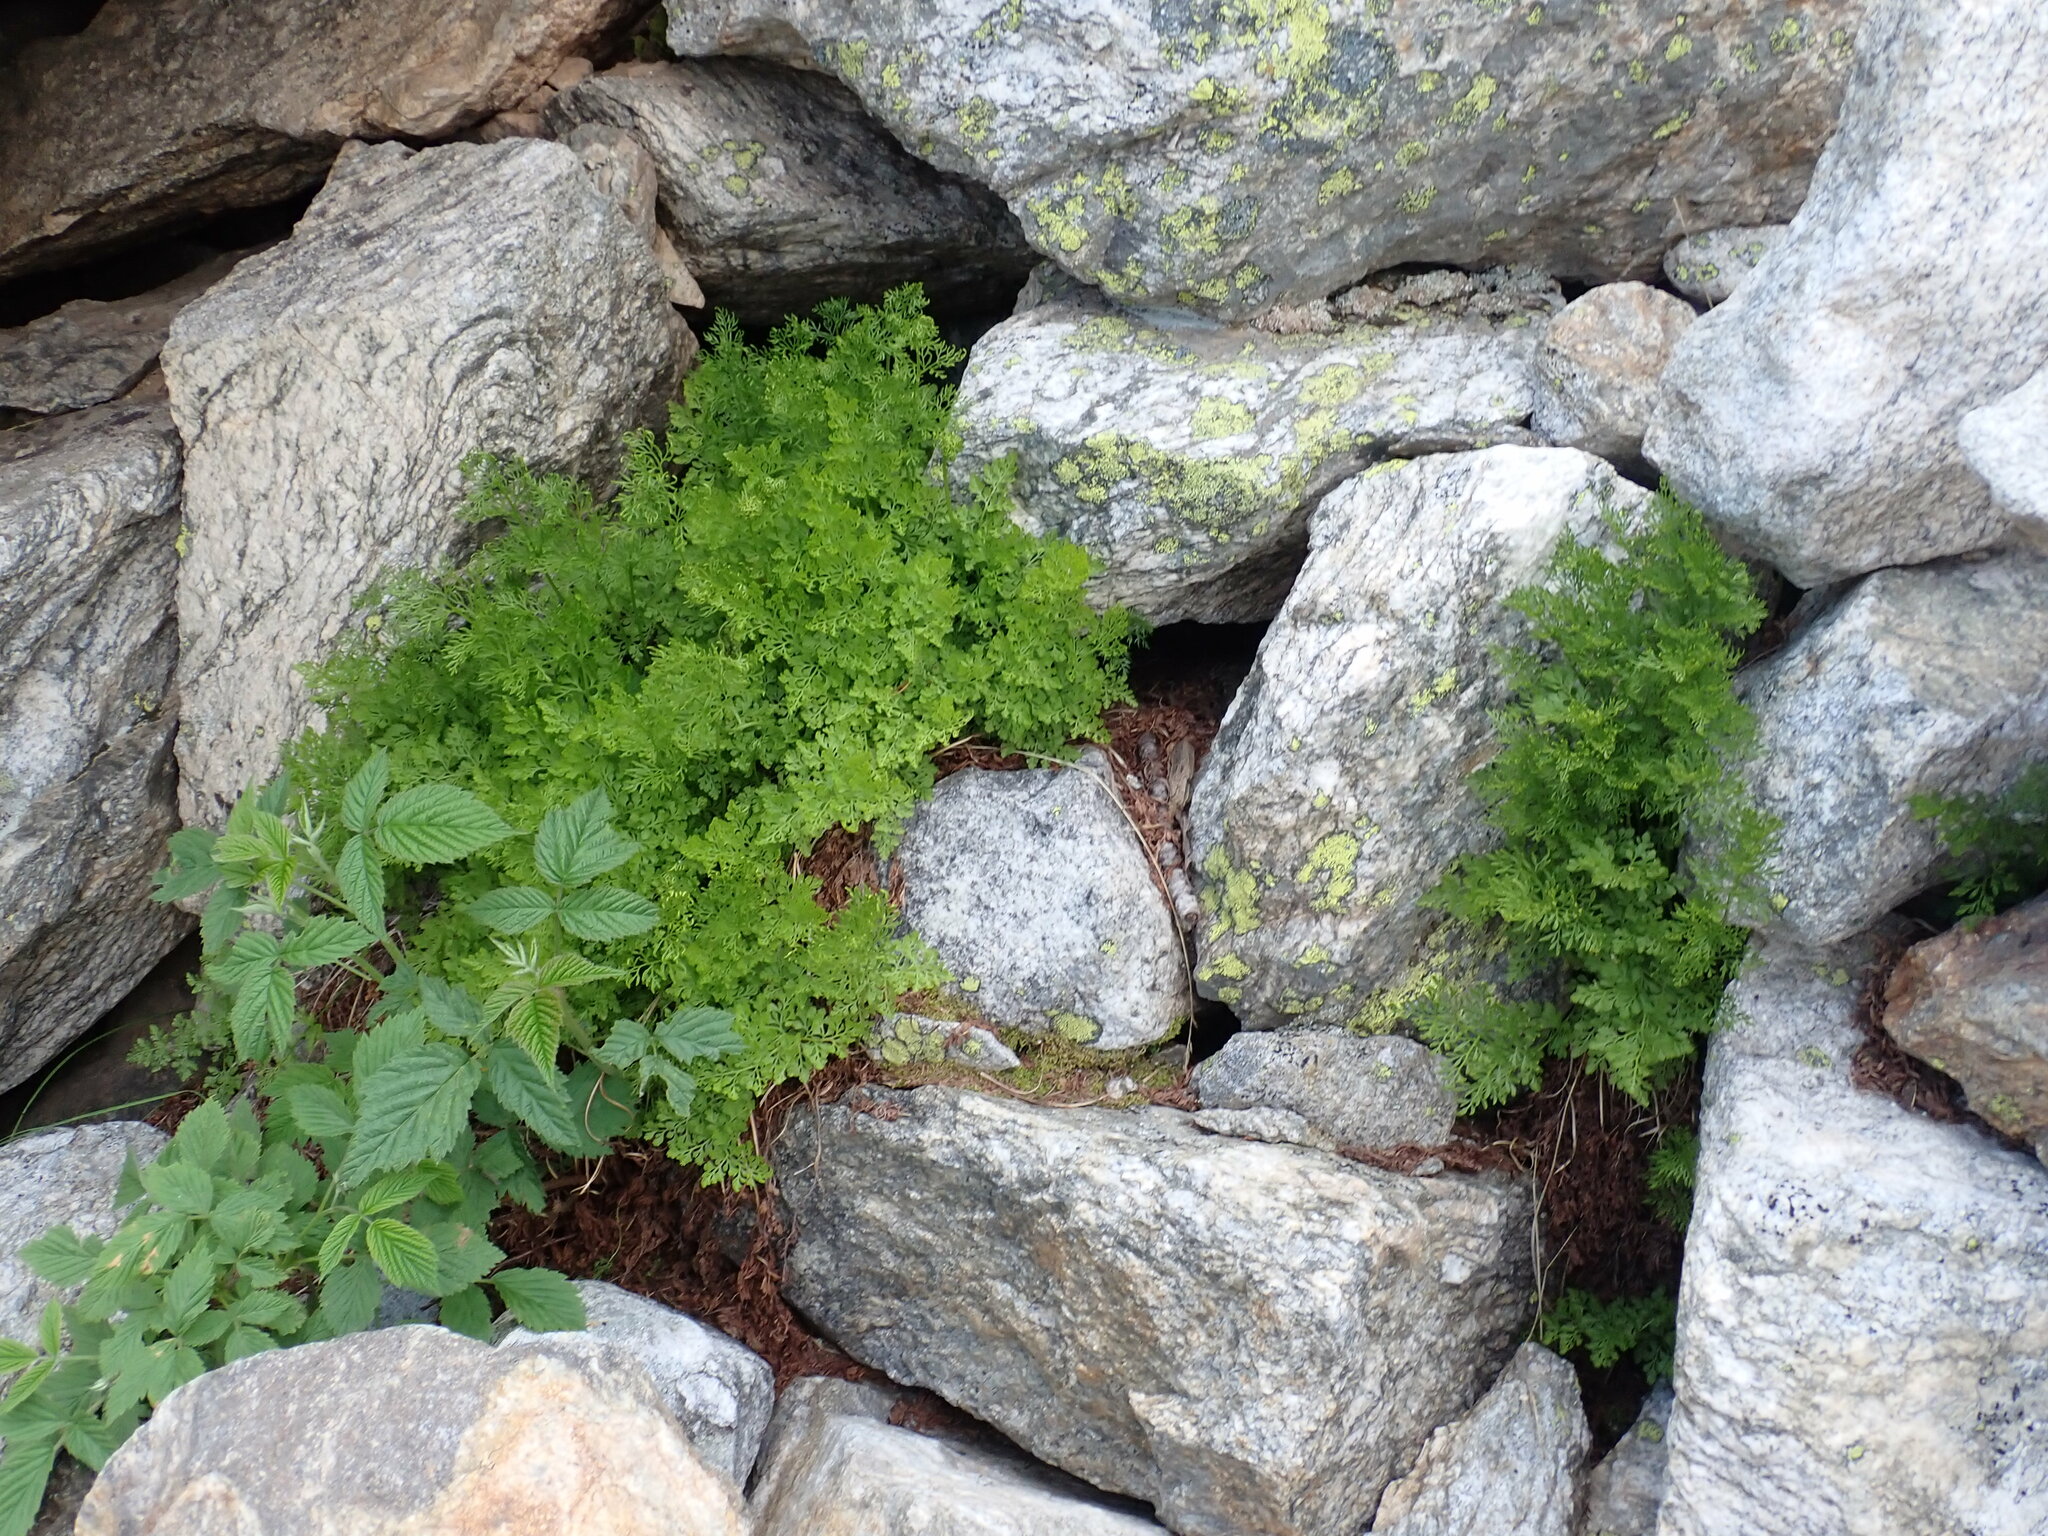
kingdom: Plantae
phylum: Tracheophyta
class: Polypodiopsida
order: Polypodiales
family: Pteridaceae
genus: Cryptogramma
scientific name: Cryptogramma crispa
